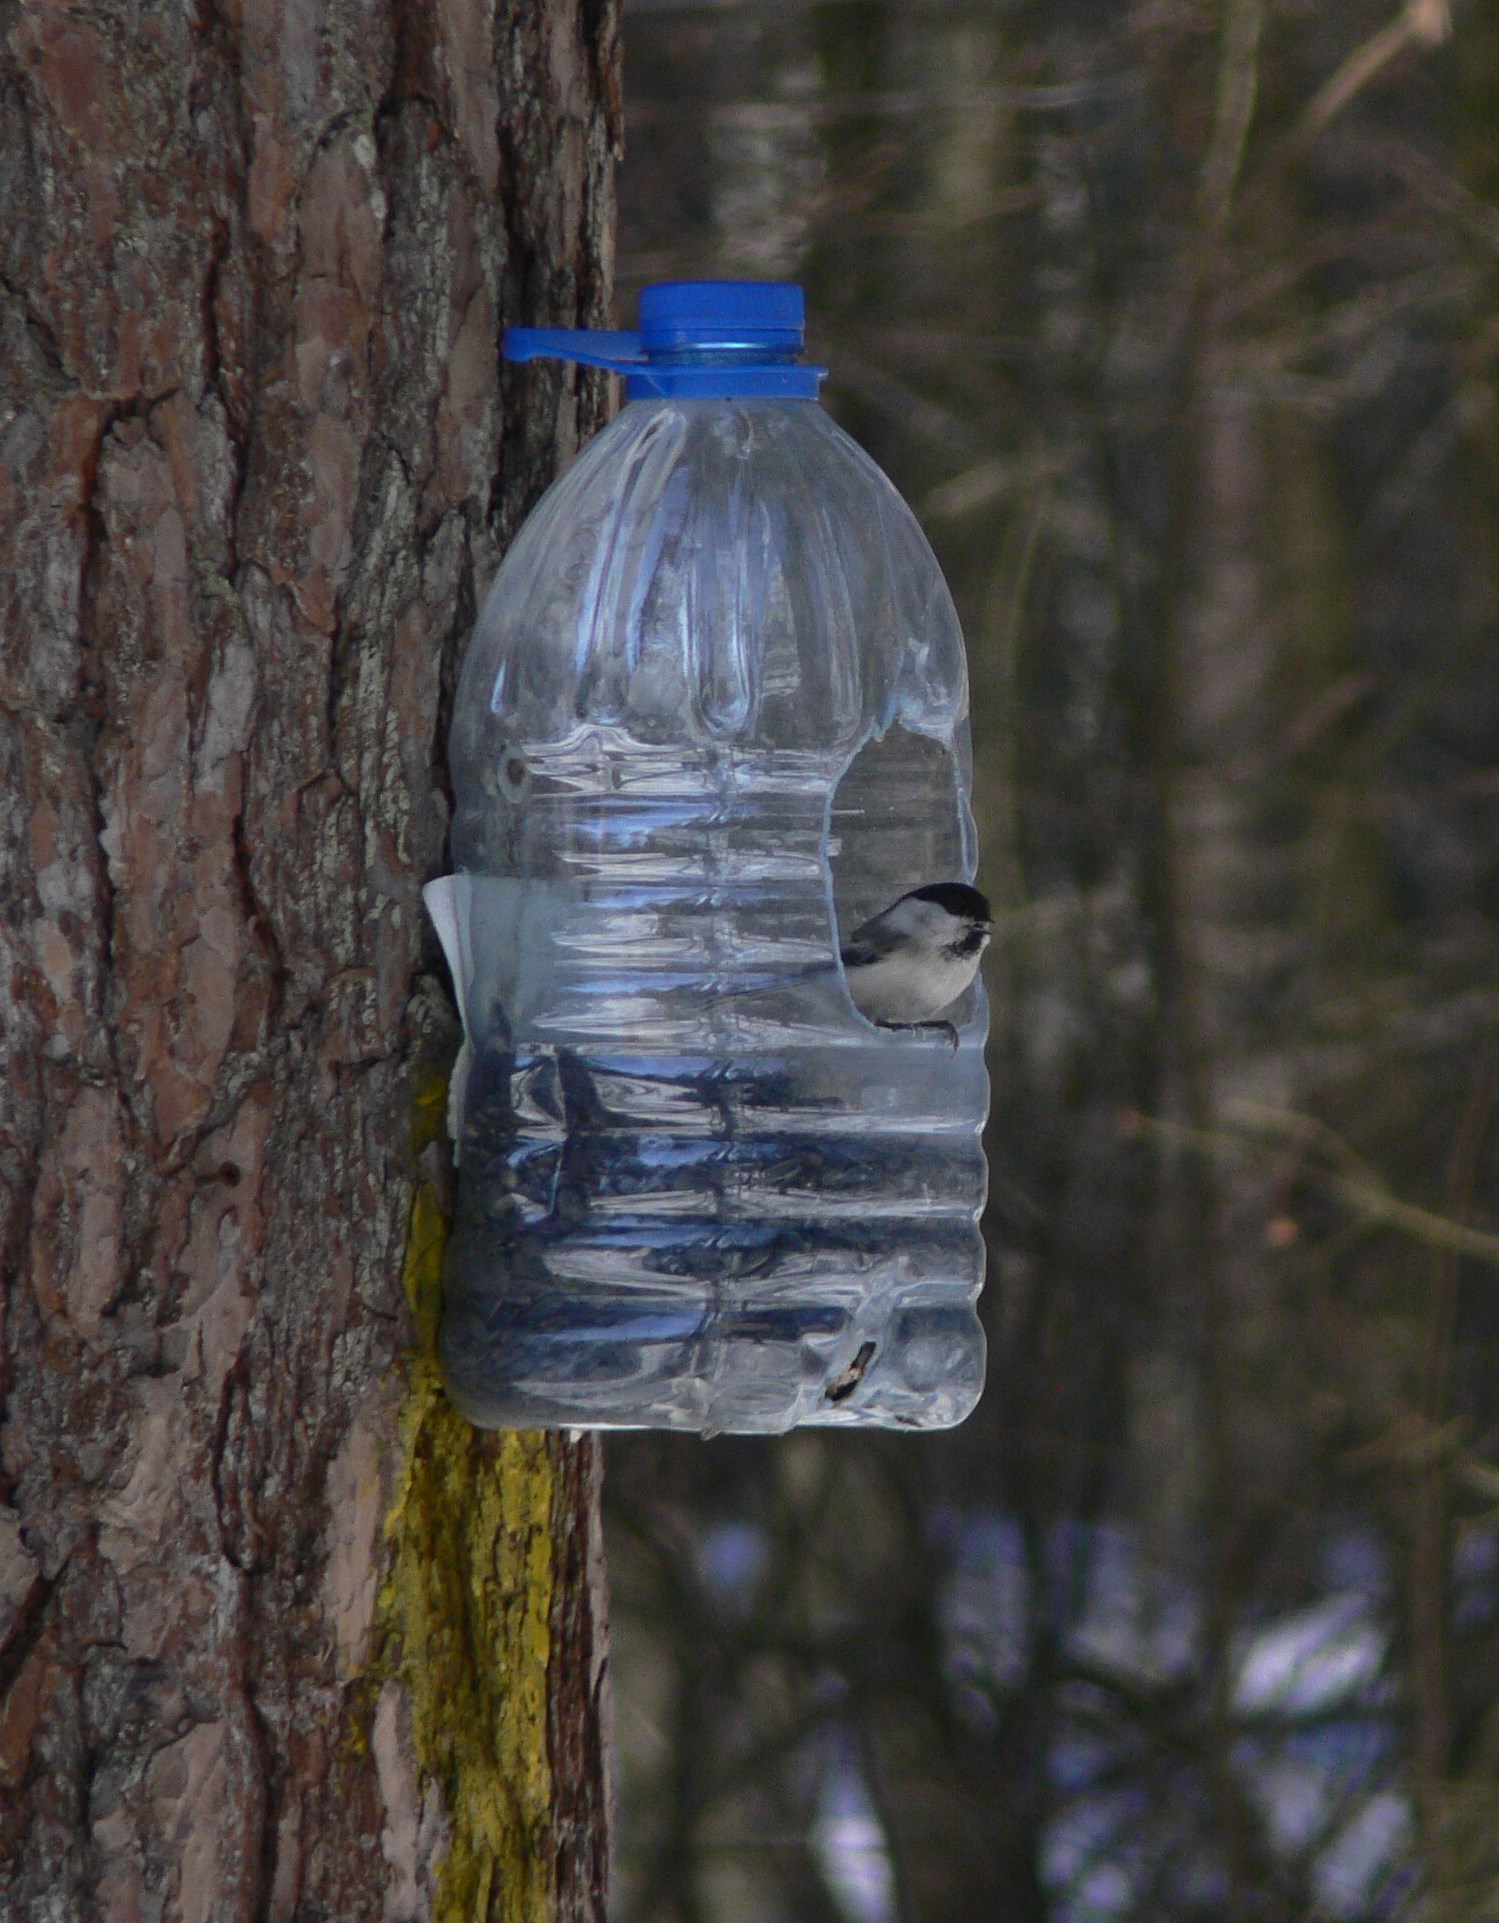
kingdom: Animalia
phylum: Chordata
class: Aves
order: Passeriformes
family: Paridae
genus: Poecile
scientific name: Poecile montanus
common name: Willow tit
